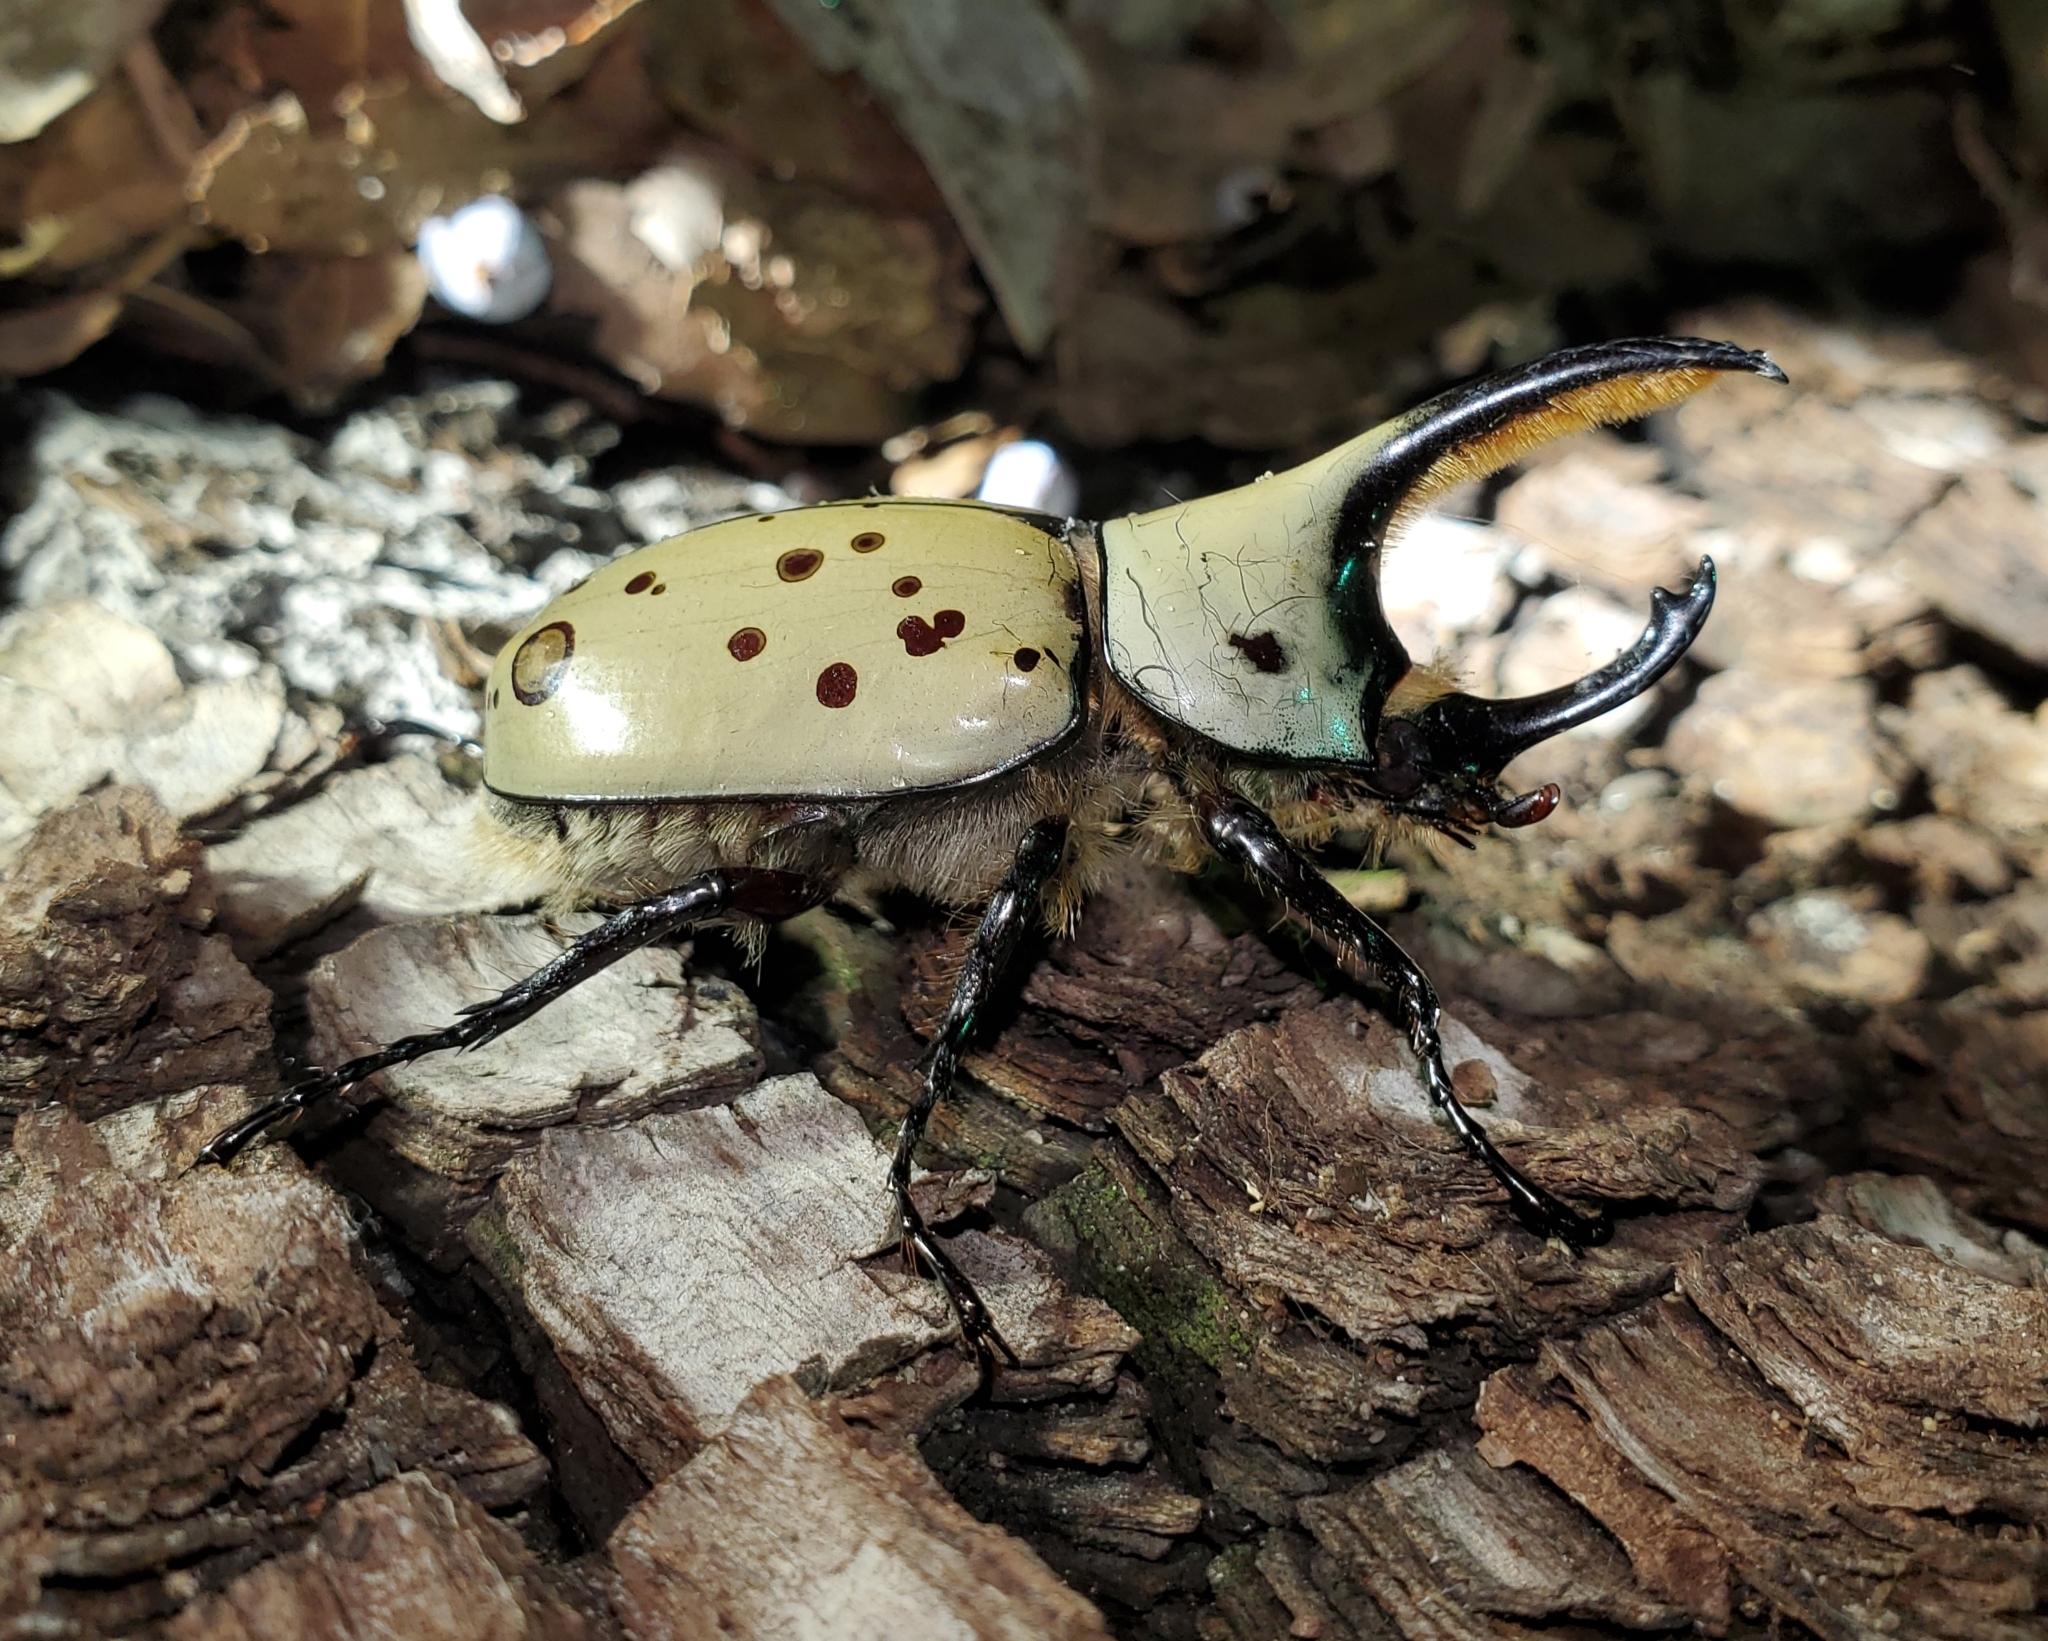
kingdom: Animalia
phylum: Arthropoda
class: Insecta
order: Coleoptera
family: Scarabaeidae
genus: Dynastes
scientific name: Dynastes grantii
